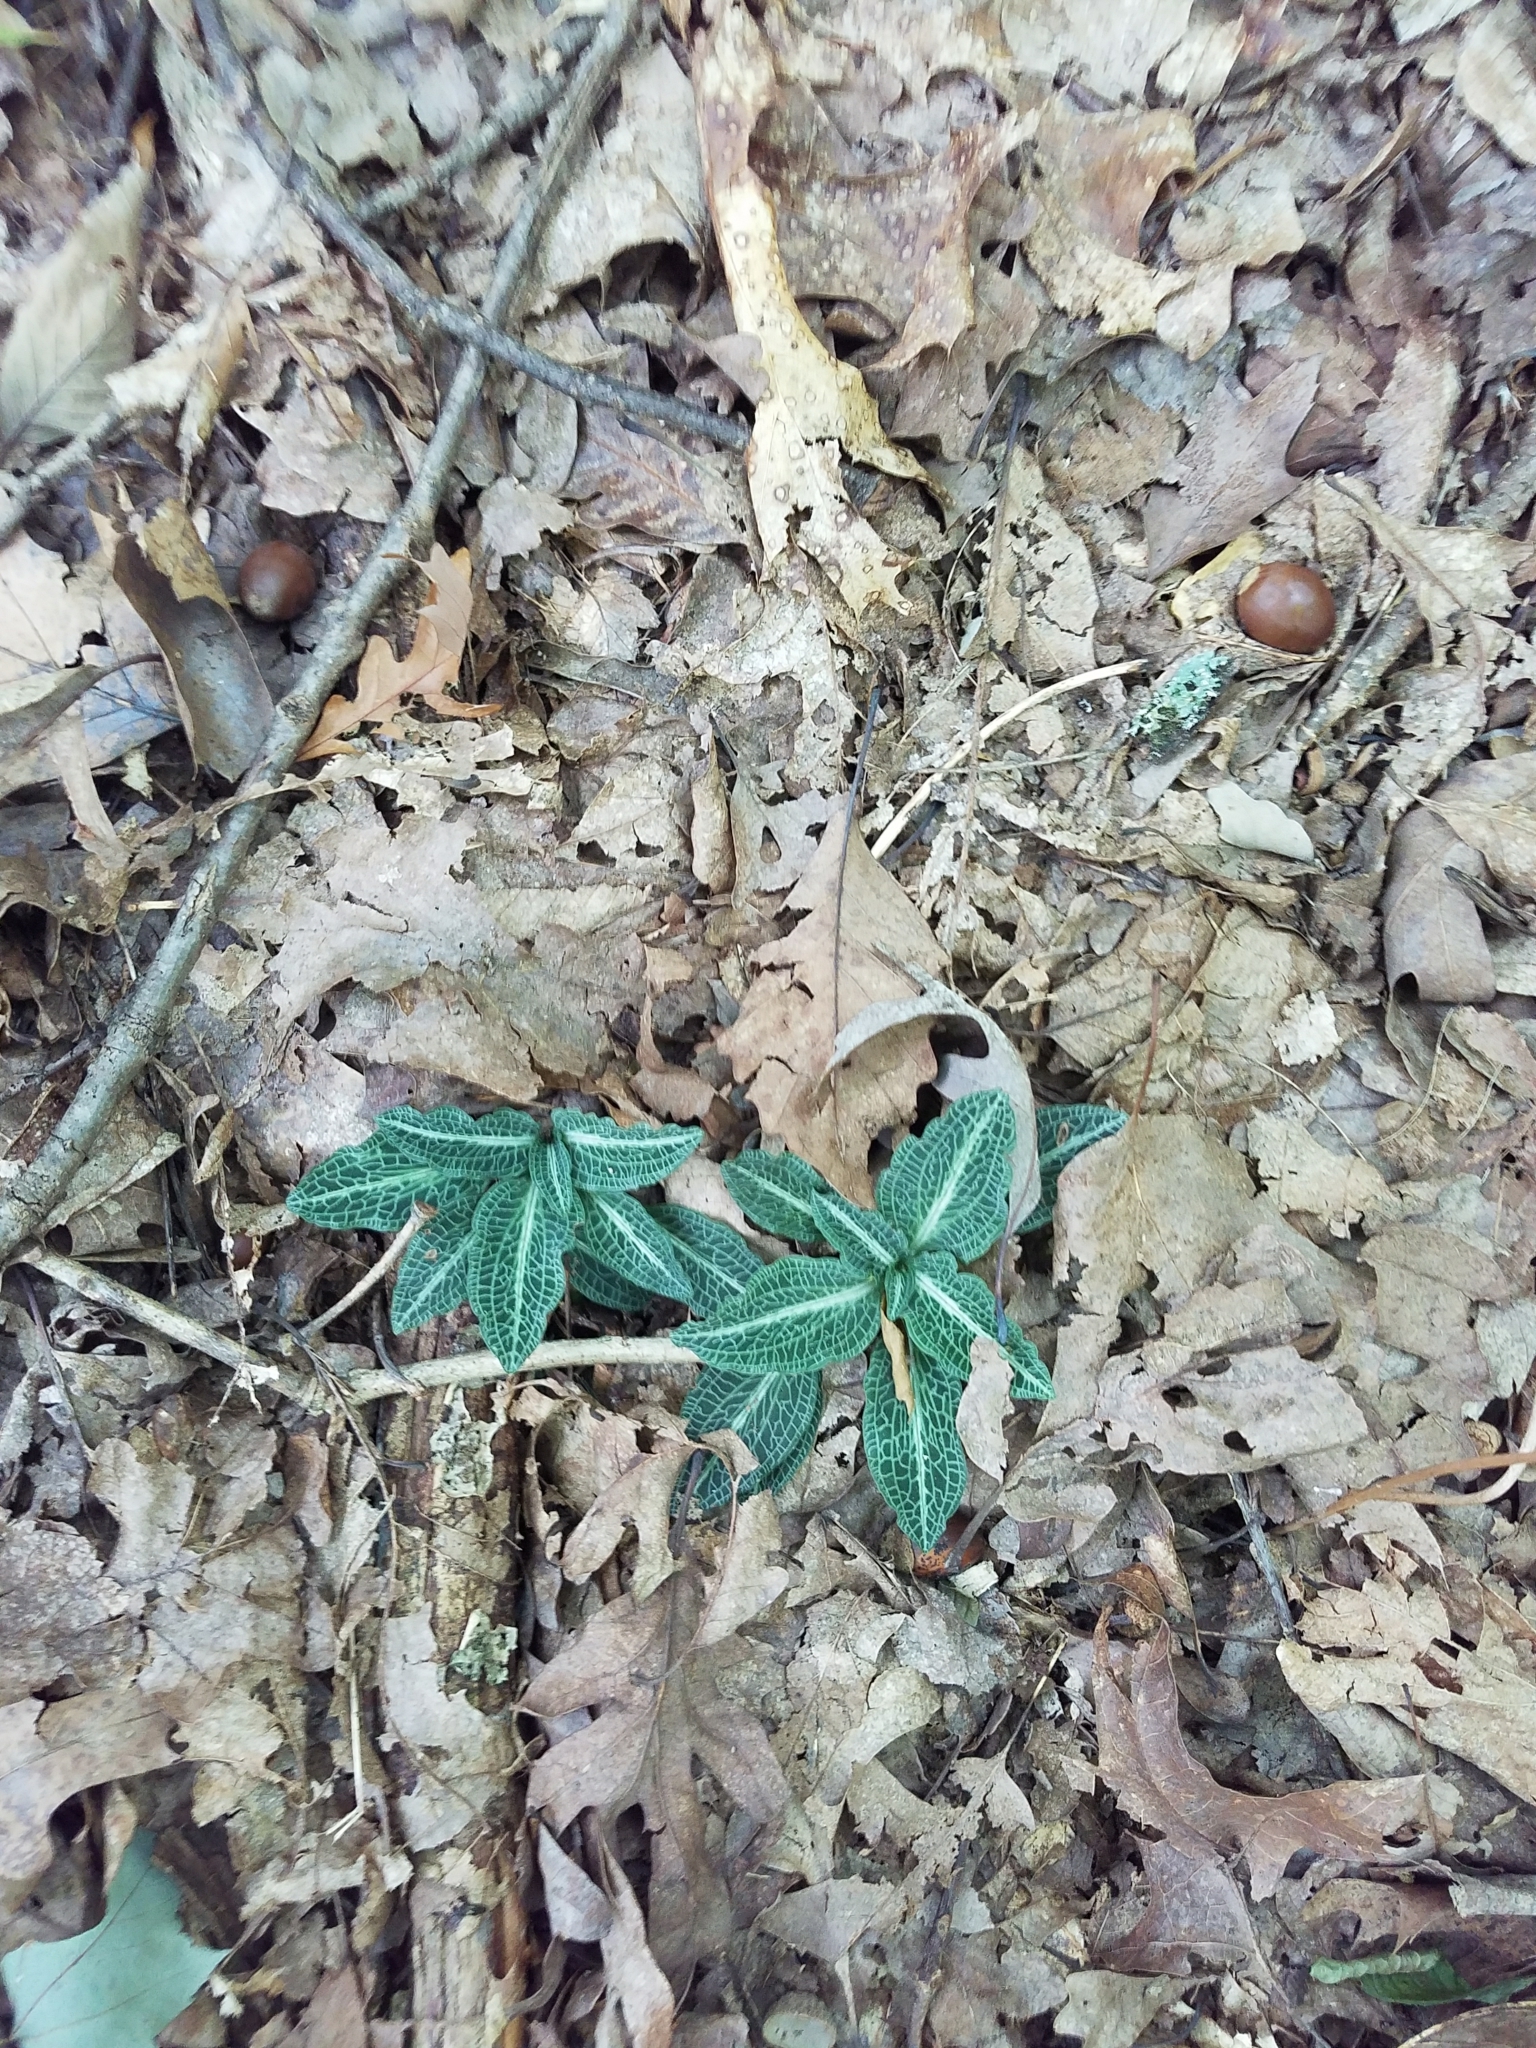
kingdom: Plantae
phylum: Tracheophyta
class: Liliopsida
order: Asparagales
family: Orchidaceae
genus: Goodyera
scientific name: Goodyera pubescens
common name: Downy rattlesnake-plantain
